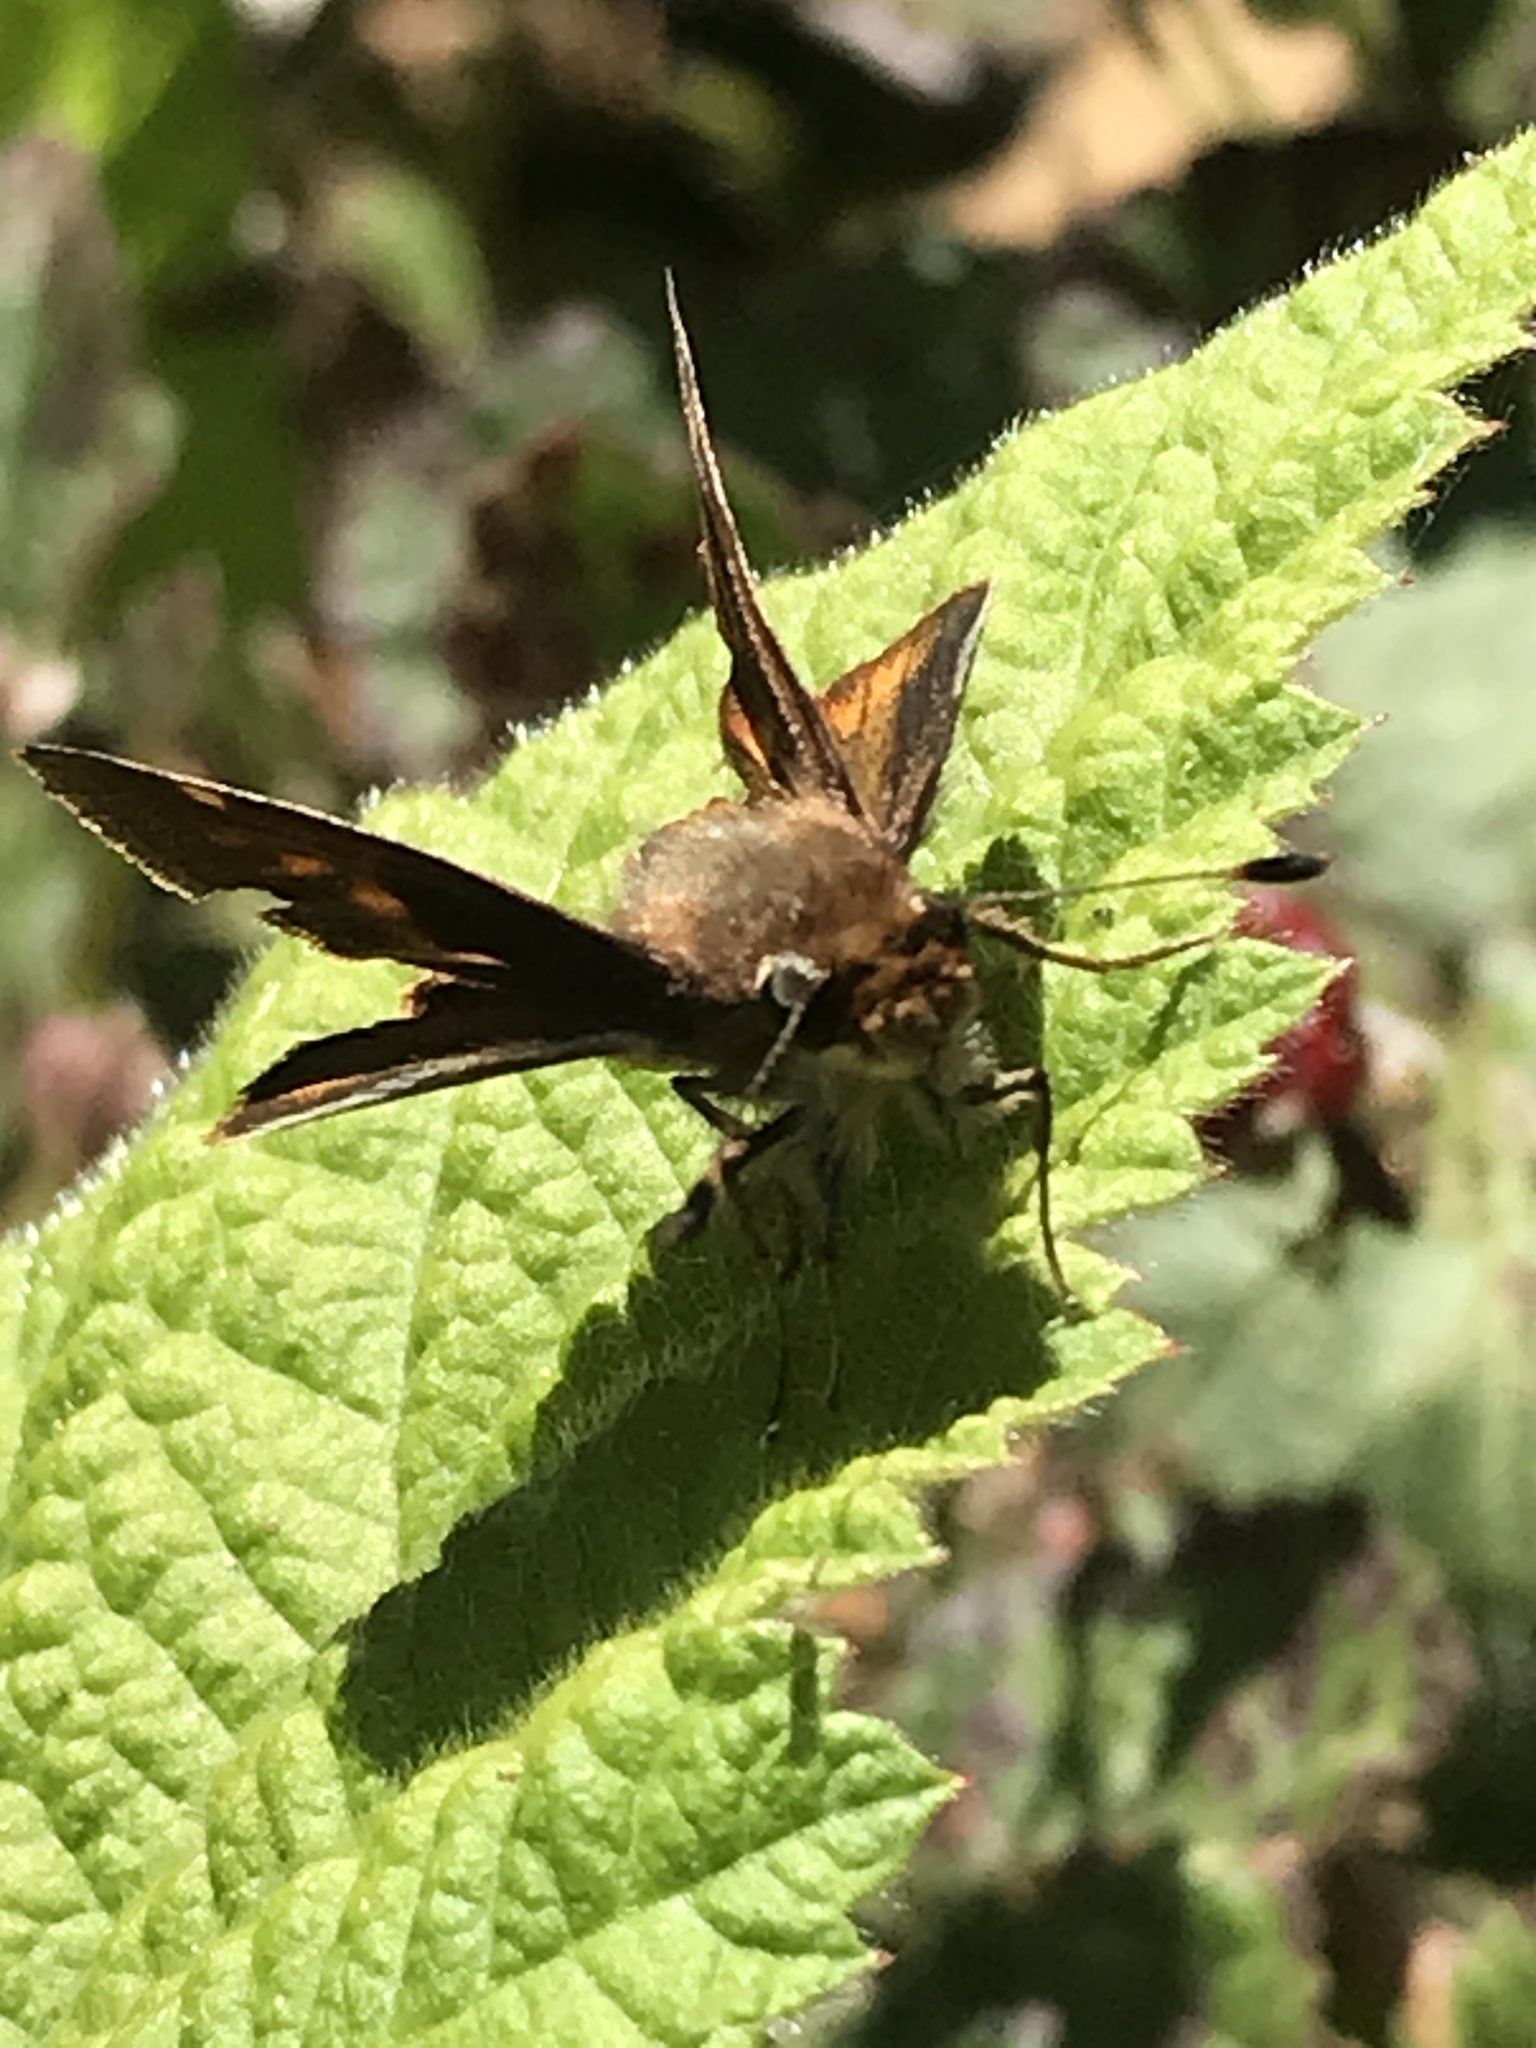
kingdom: Animalia
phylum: Arthropoda
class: Insecta
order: Lepidoptera
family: Hesperiidae
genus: Lon
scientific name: Lon melane
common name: Umber skipper
